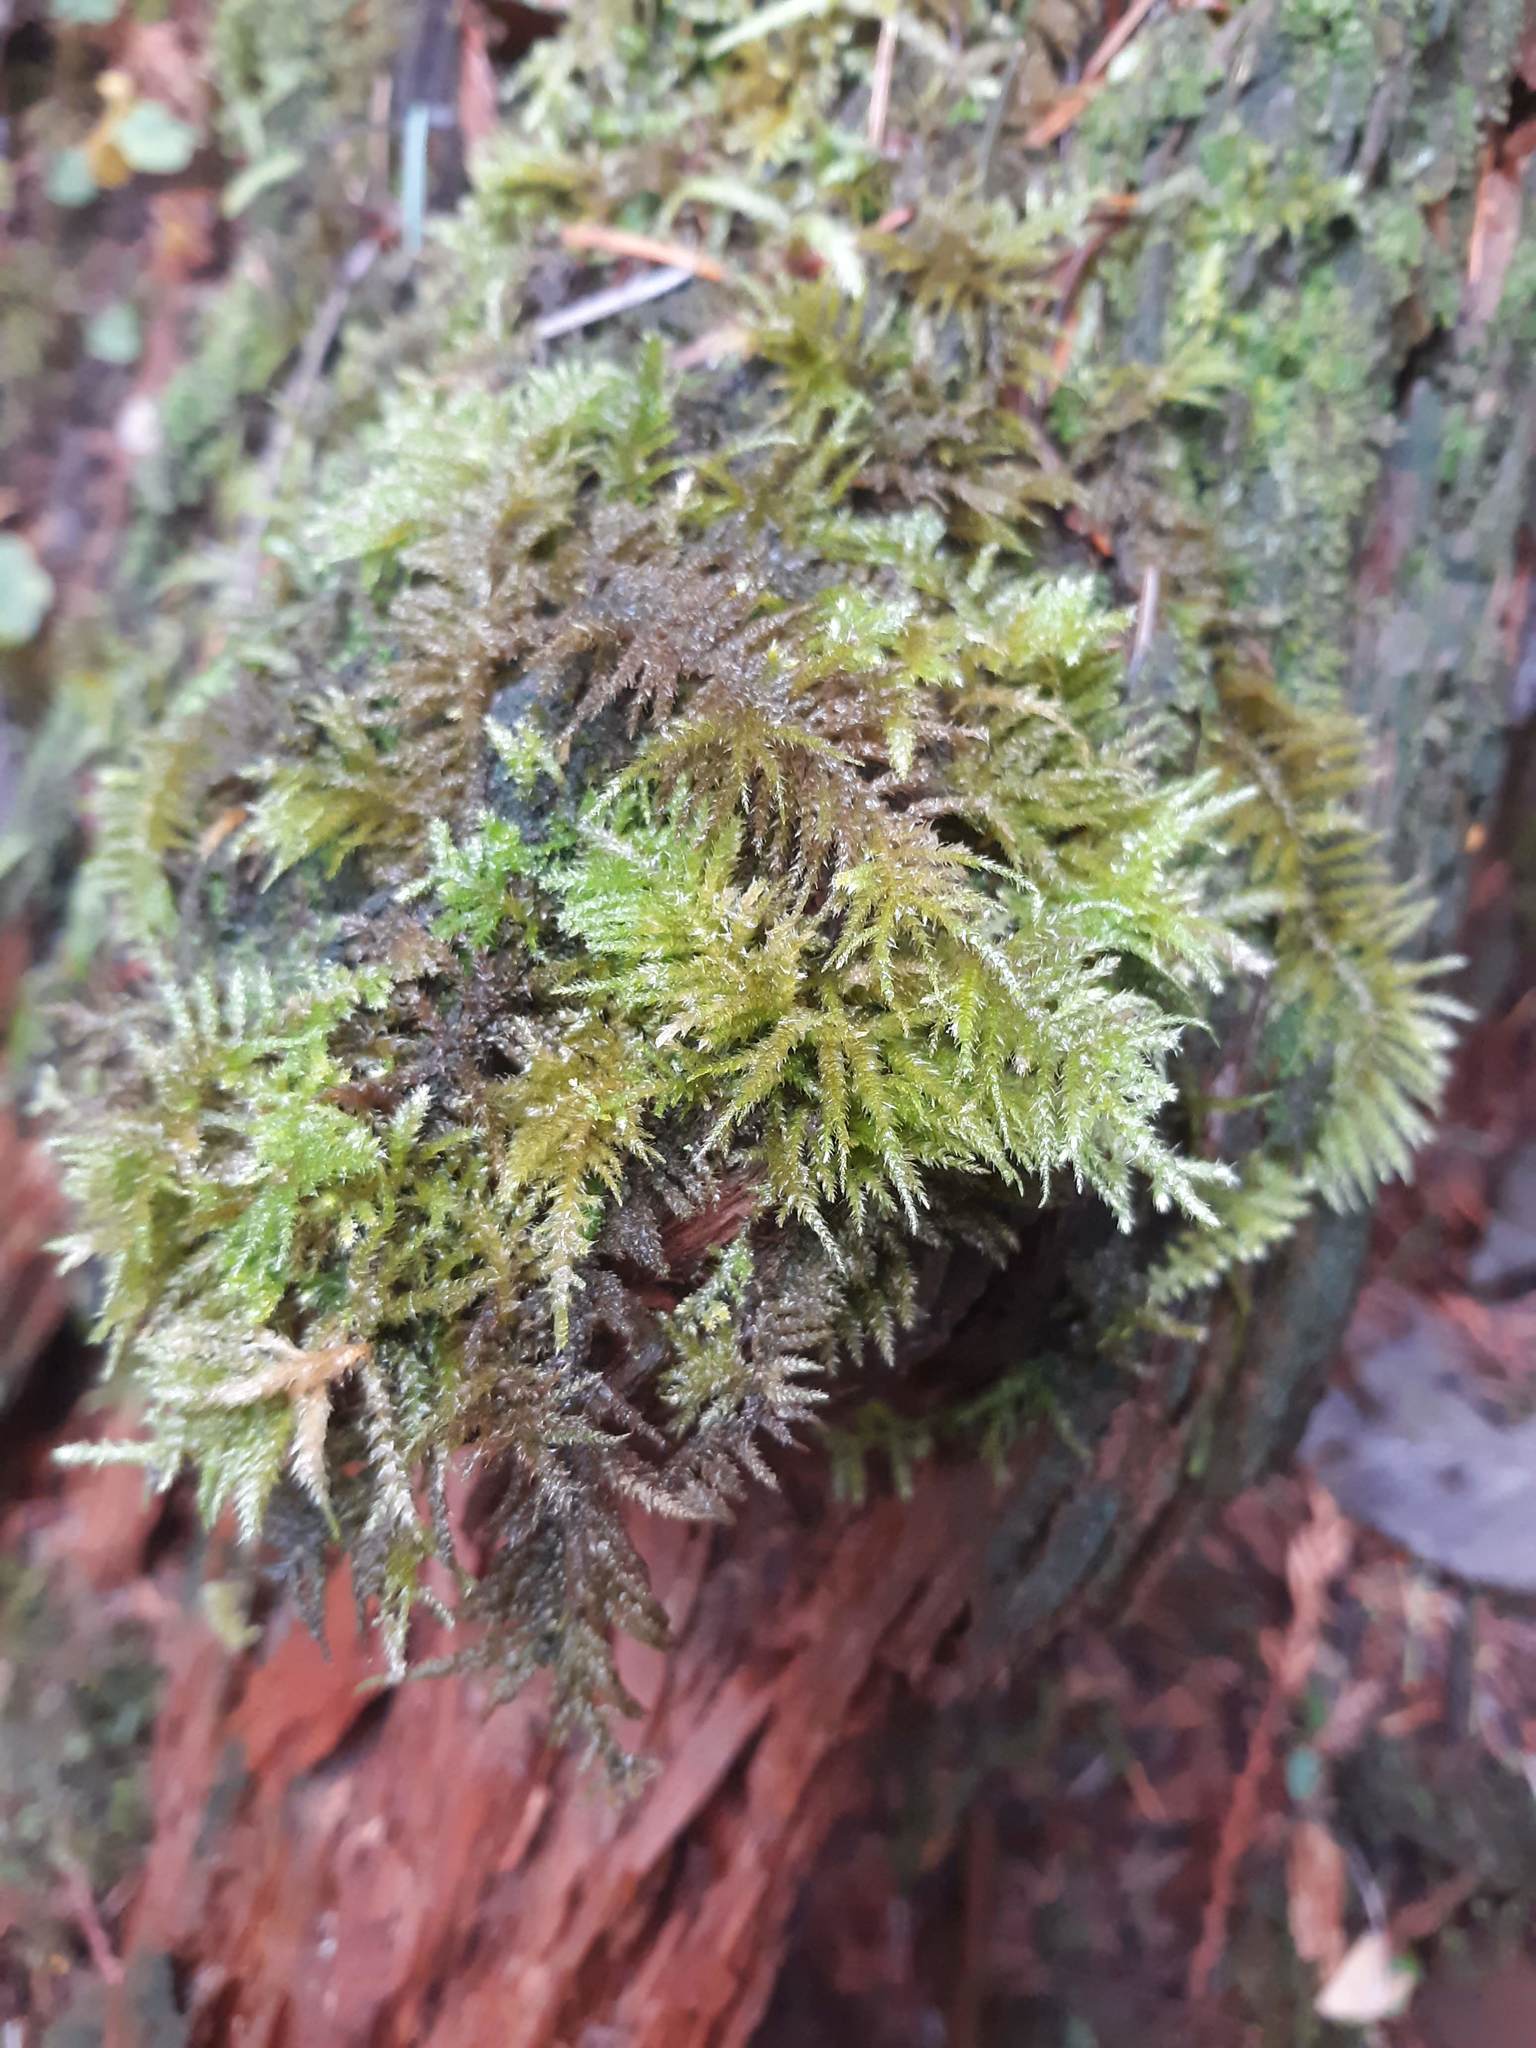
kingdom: Plantae
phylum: Bryophyta
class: Bryopsida
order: Hypnales
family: Brachytheciaceae
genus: Kindbergia
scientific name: Kindbergia oregana
